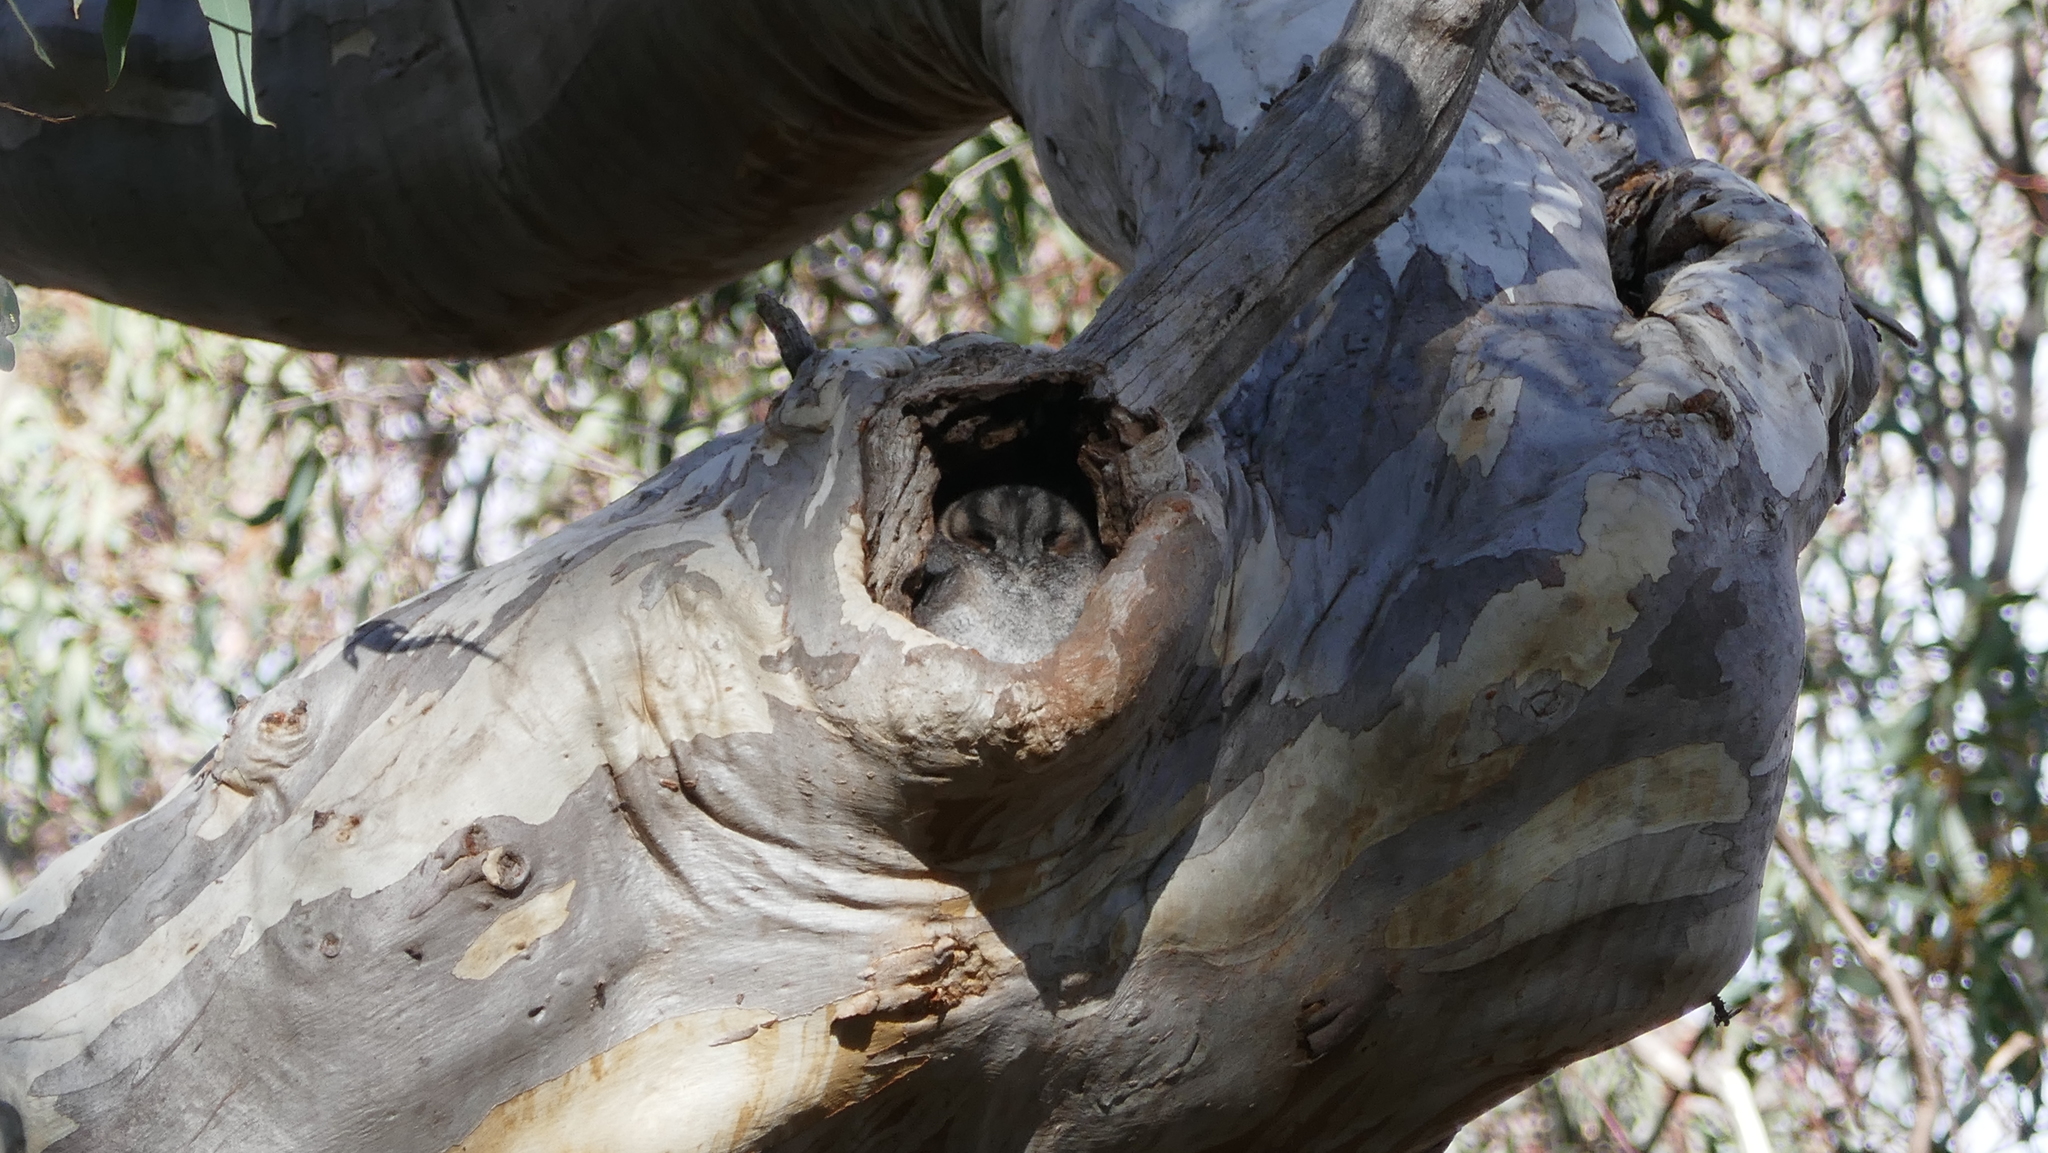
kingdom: Animalia
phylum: Chordata
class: Aves
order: Apodiformes
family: Aegothelidae
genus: Aegotheles
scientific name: Aegotheles cristatus
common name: Australian owlet-nightjar
